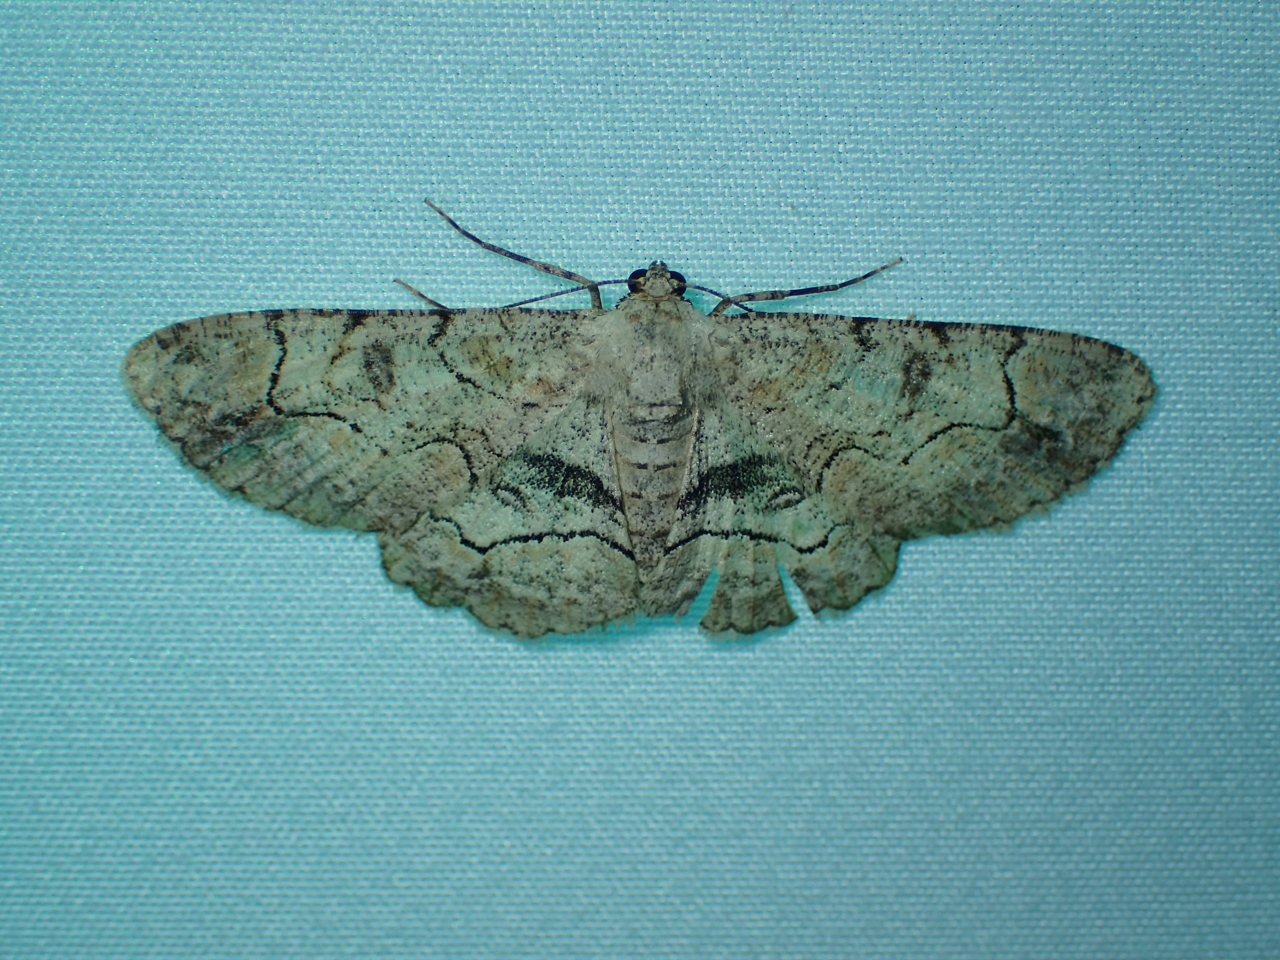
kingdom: Animalia
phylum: Arthropoda
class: Insecta
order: Lepidoptera
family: Geometridae
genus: Iridopsis
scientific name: Iridopsis larvaria
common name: Bent-line gray
